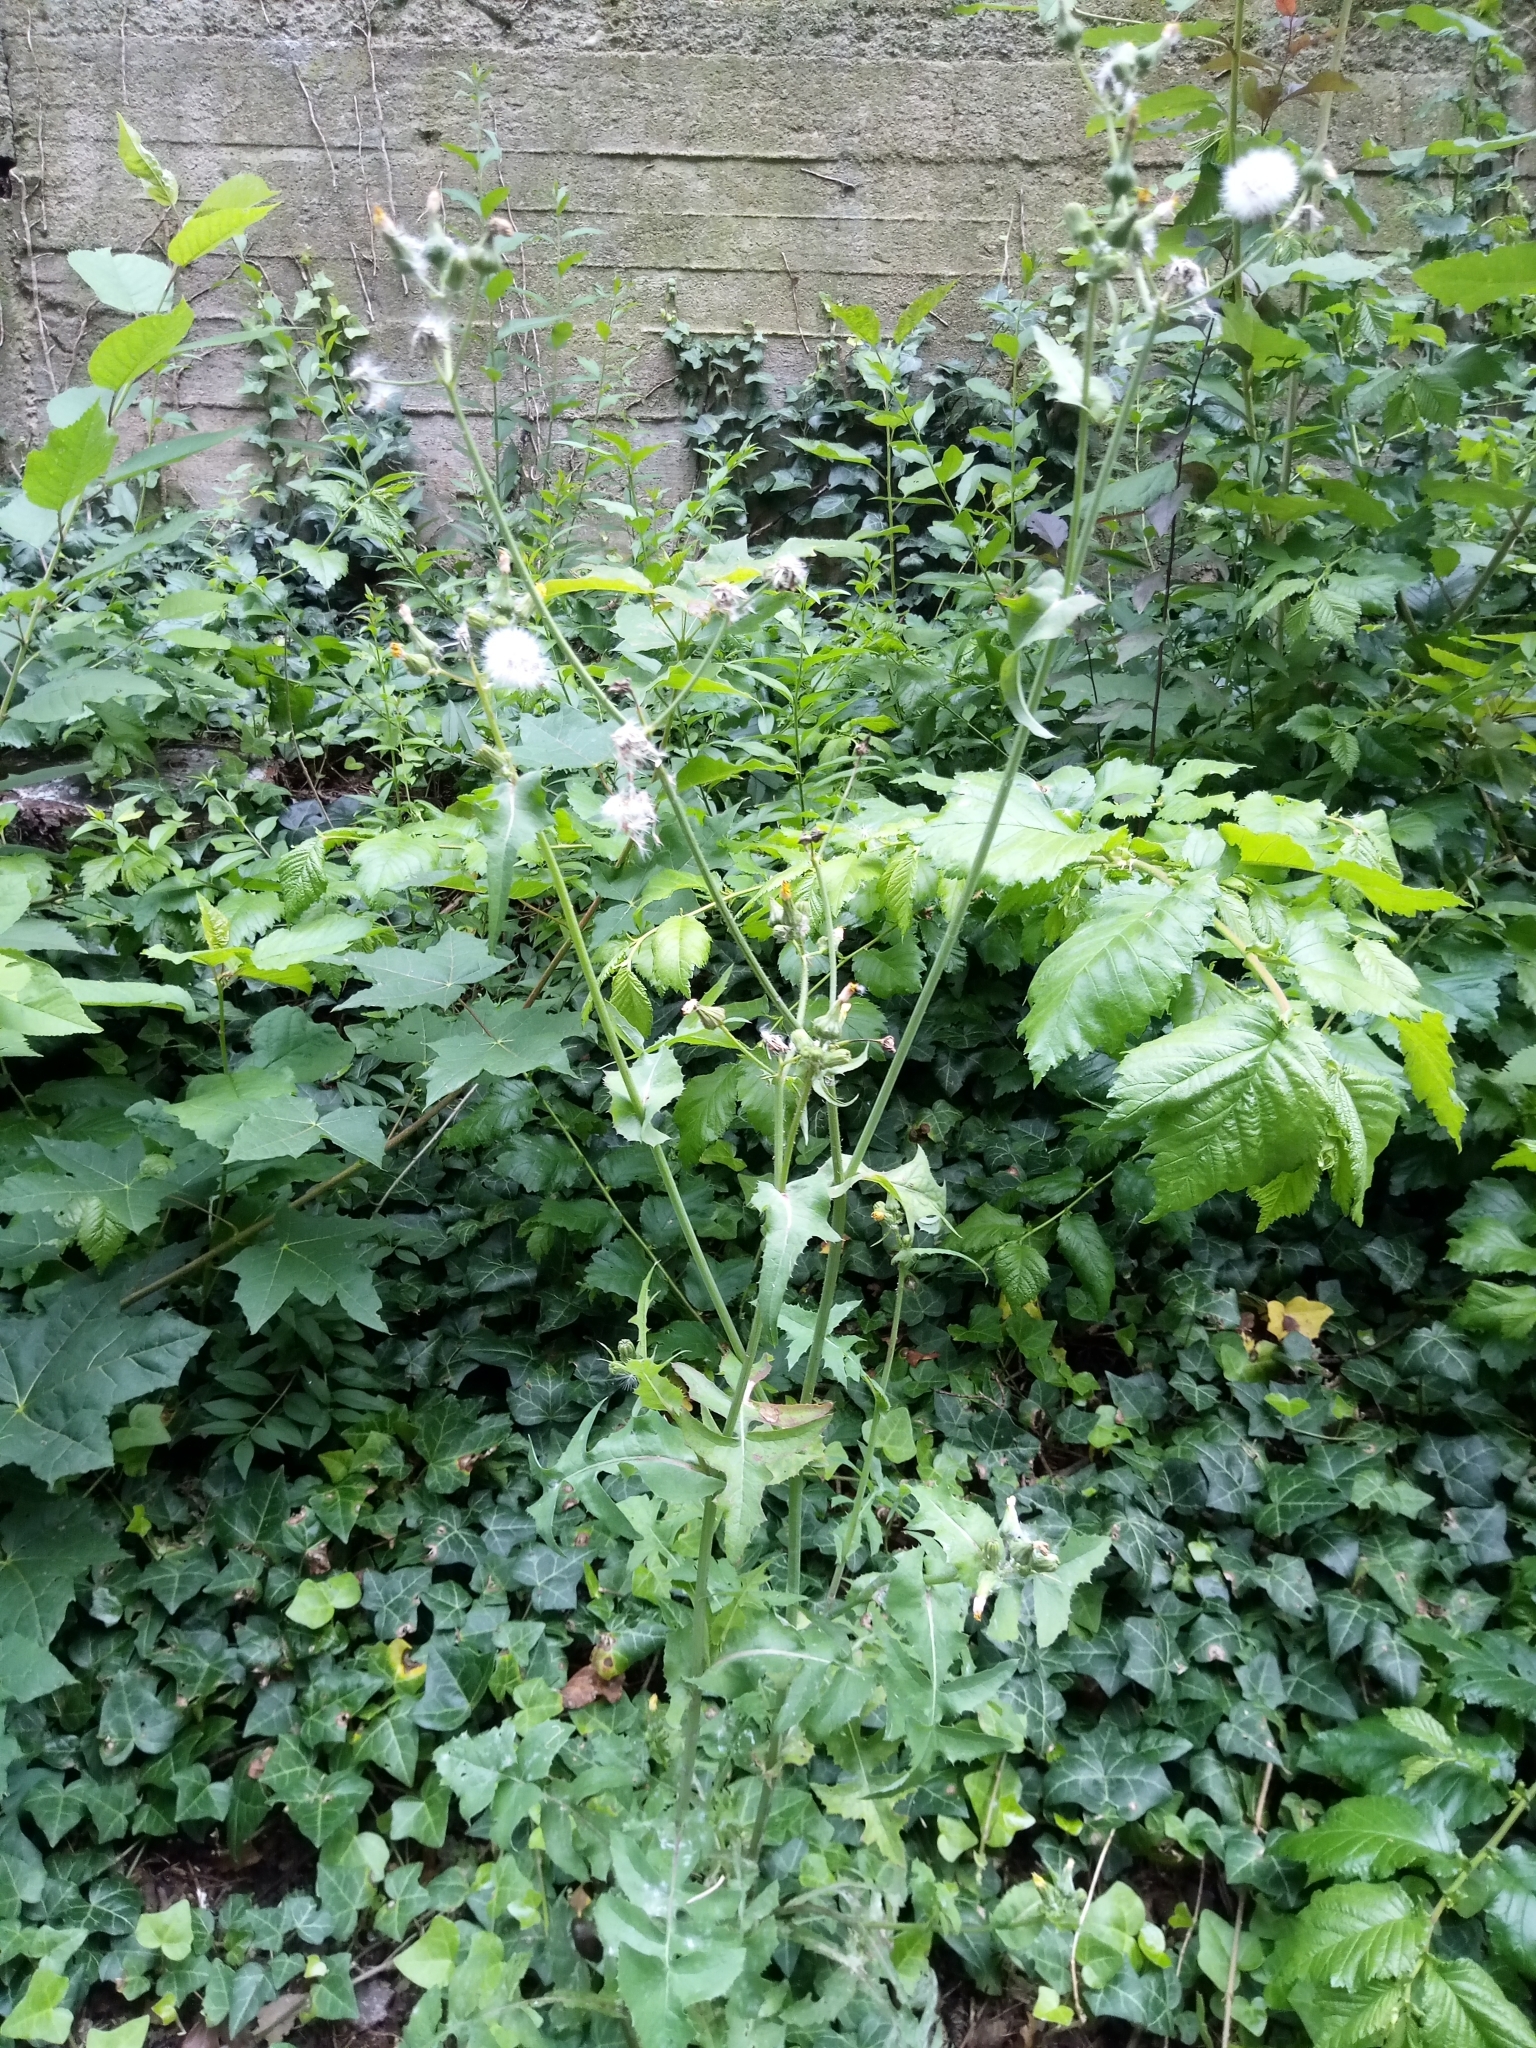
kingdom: Plantae
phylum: Tracheophyta
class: Magnoliopsida
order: Asterales
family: Asteraceae
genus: Sonchus
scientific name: Sonchus oleraceus
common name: Common sowthistle
